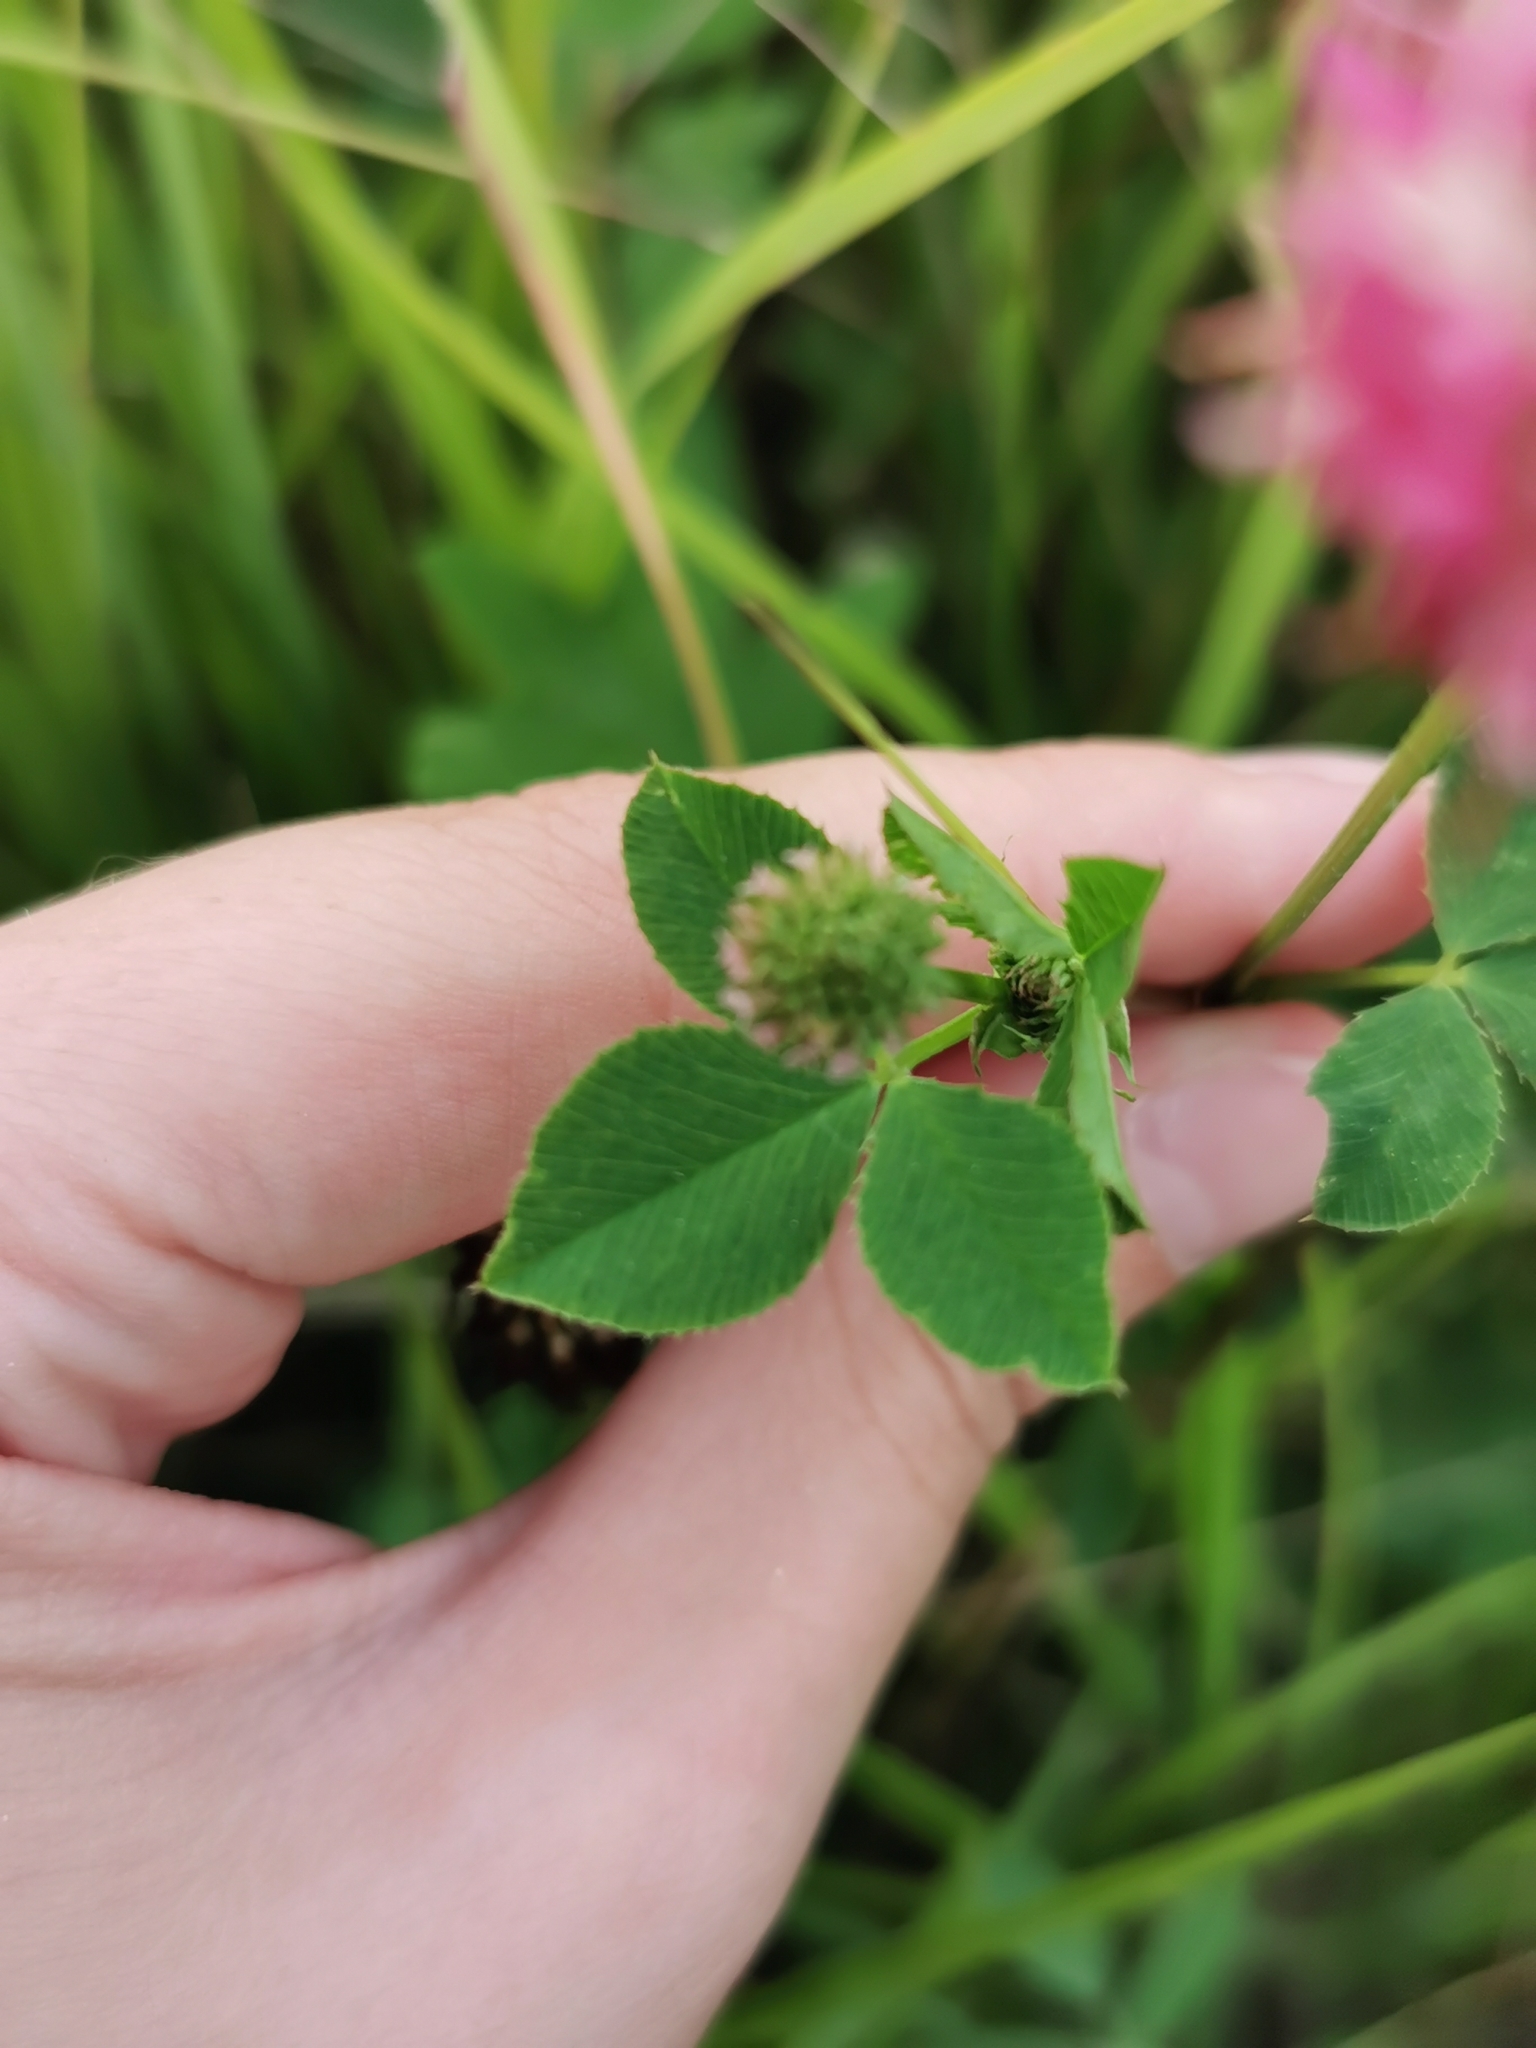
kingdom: Plantae
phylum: Tracheophyta
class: Magnoliopsida
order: Fabales
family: Fabaceae
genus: Trifolium
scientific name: Trifolium hybridum
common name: Alsike clover
